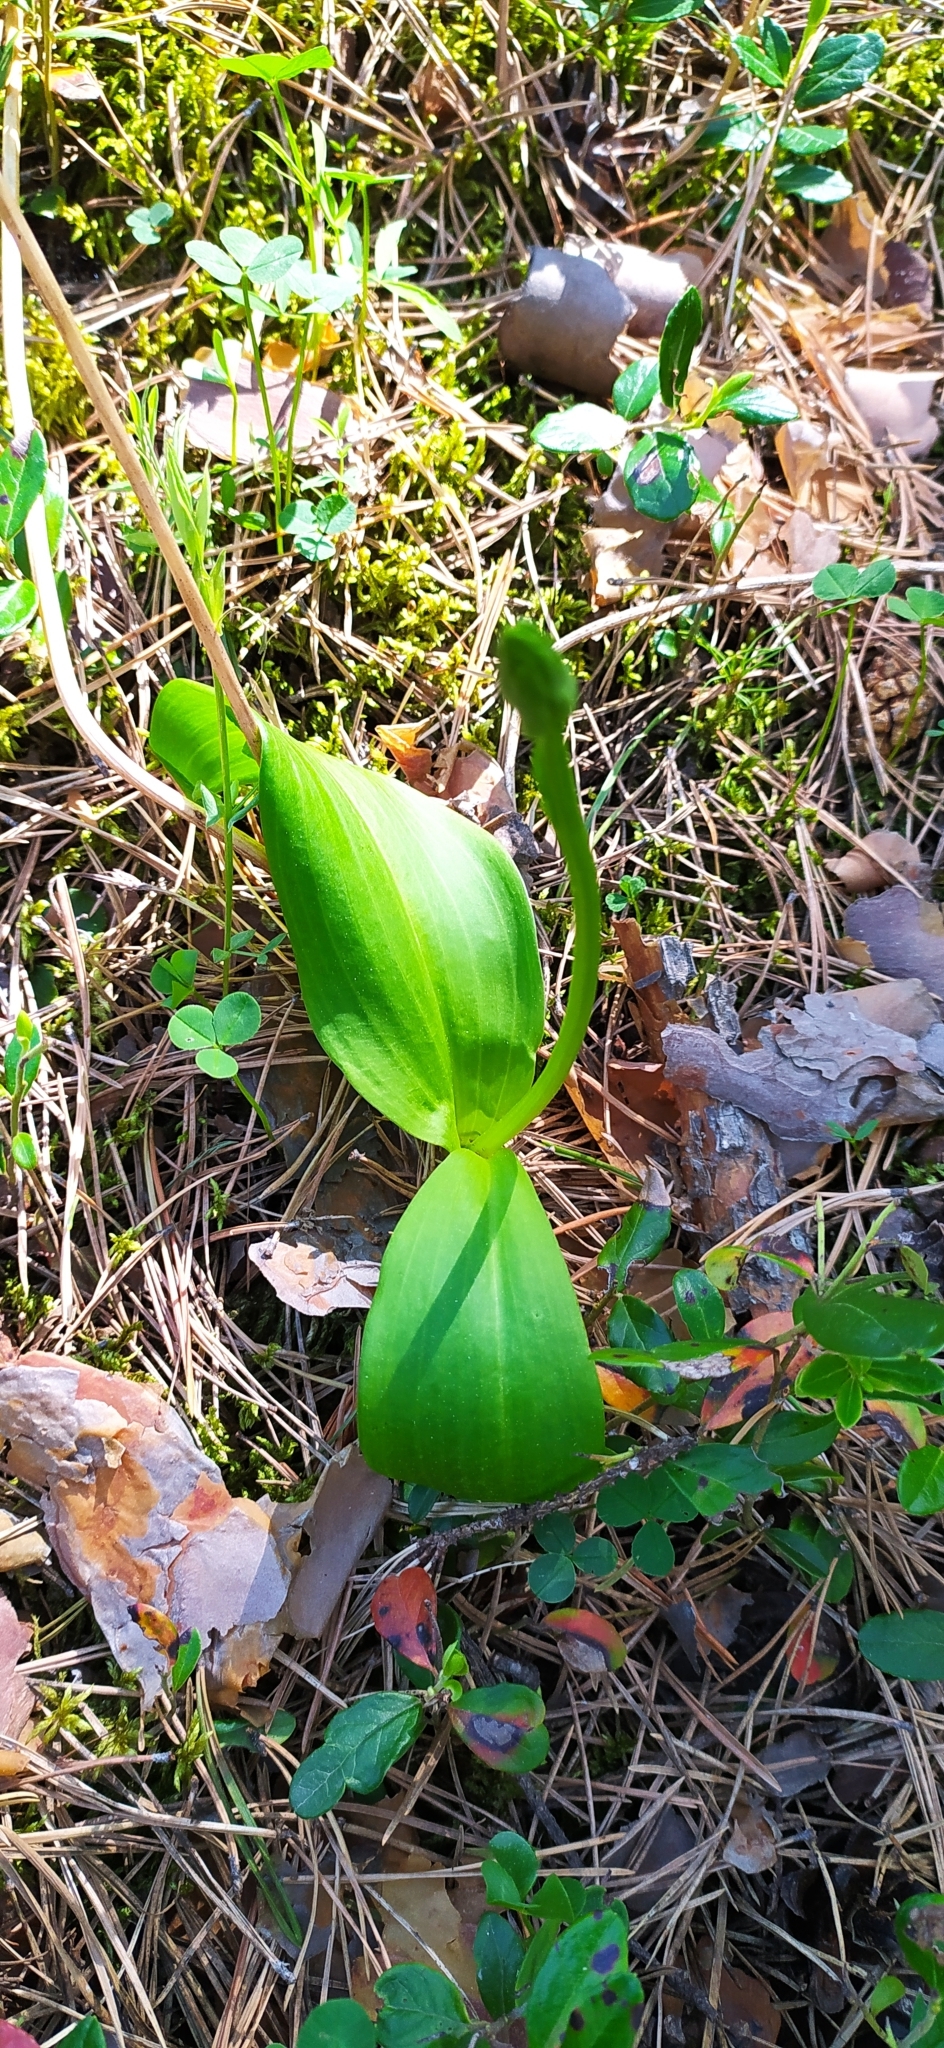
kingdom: Plantae
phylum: Tracheophyta
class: Liliopsida
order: Asparagales
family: Orchidaceae
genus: Platanthera
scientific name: Platanthera bifolia
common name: Lesser butterfly-orchid
